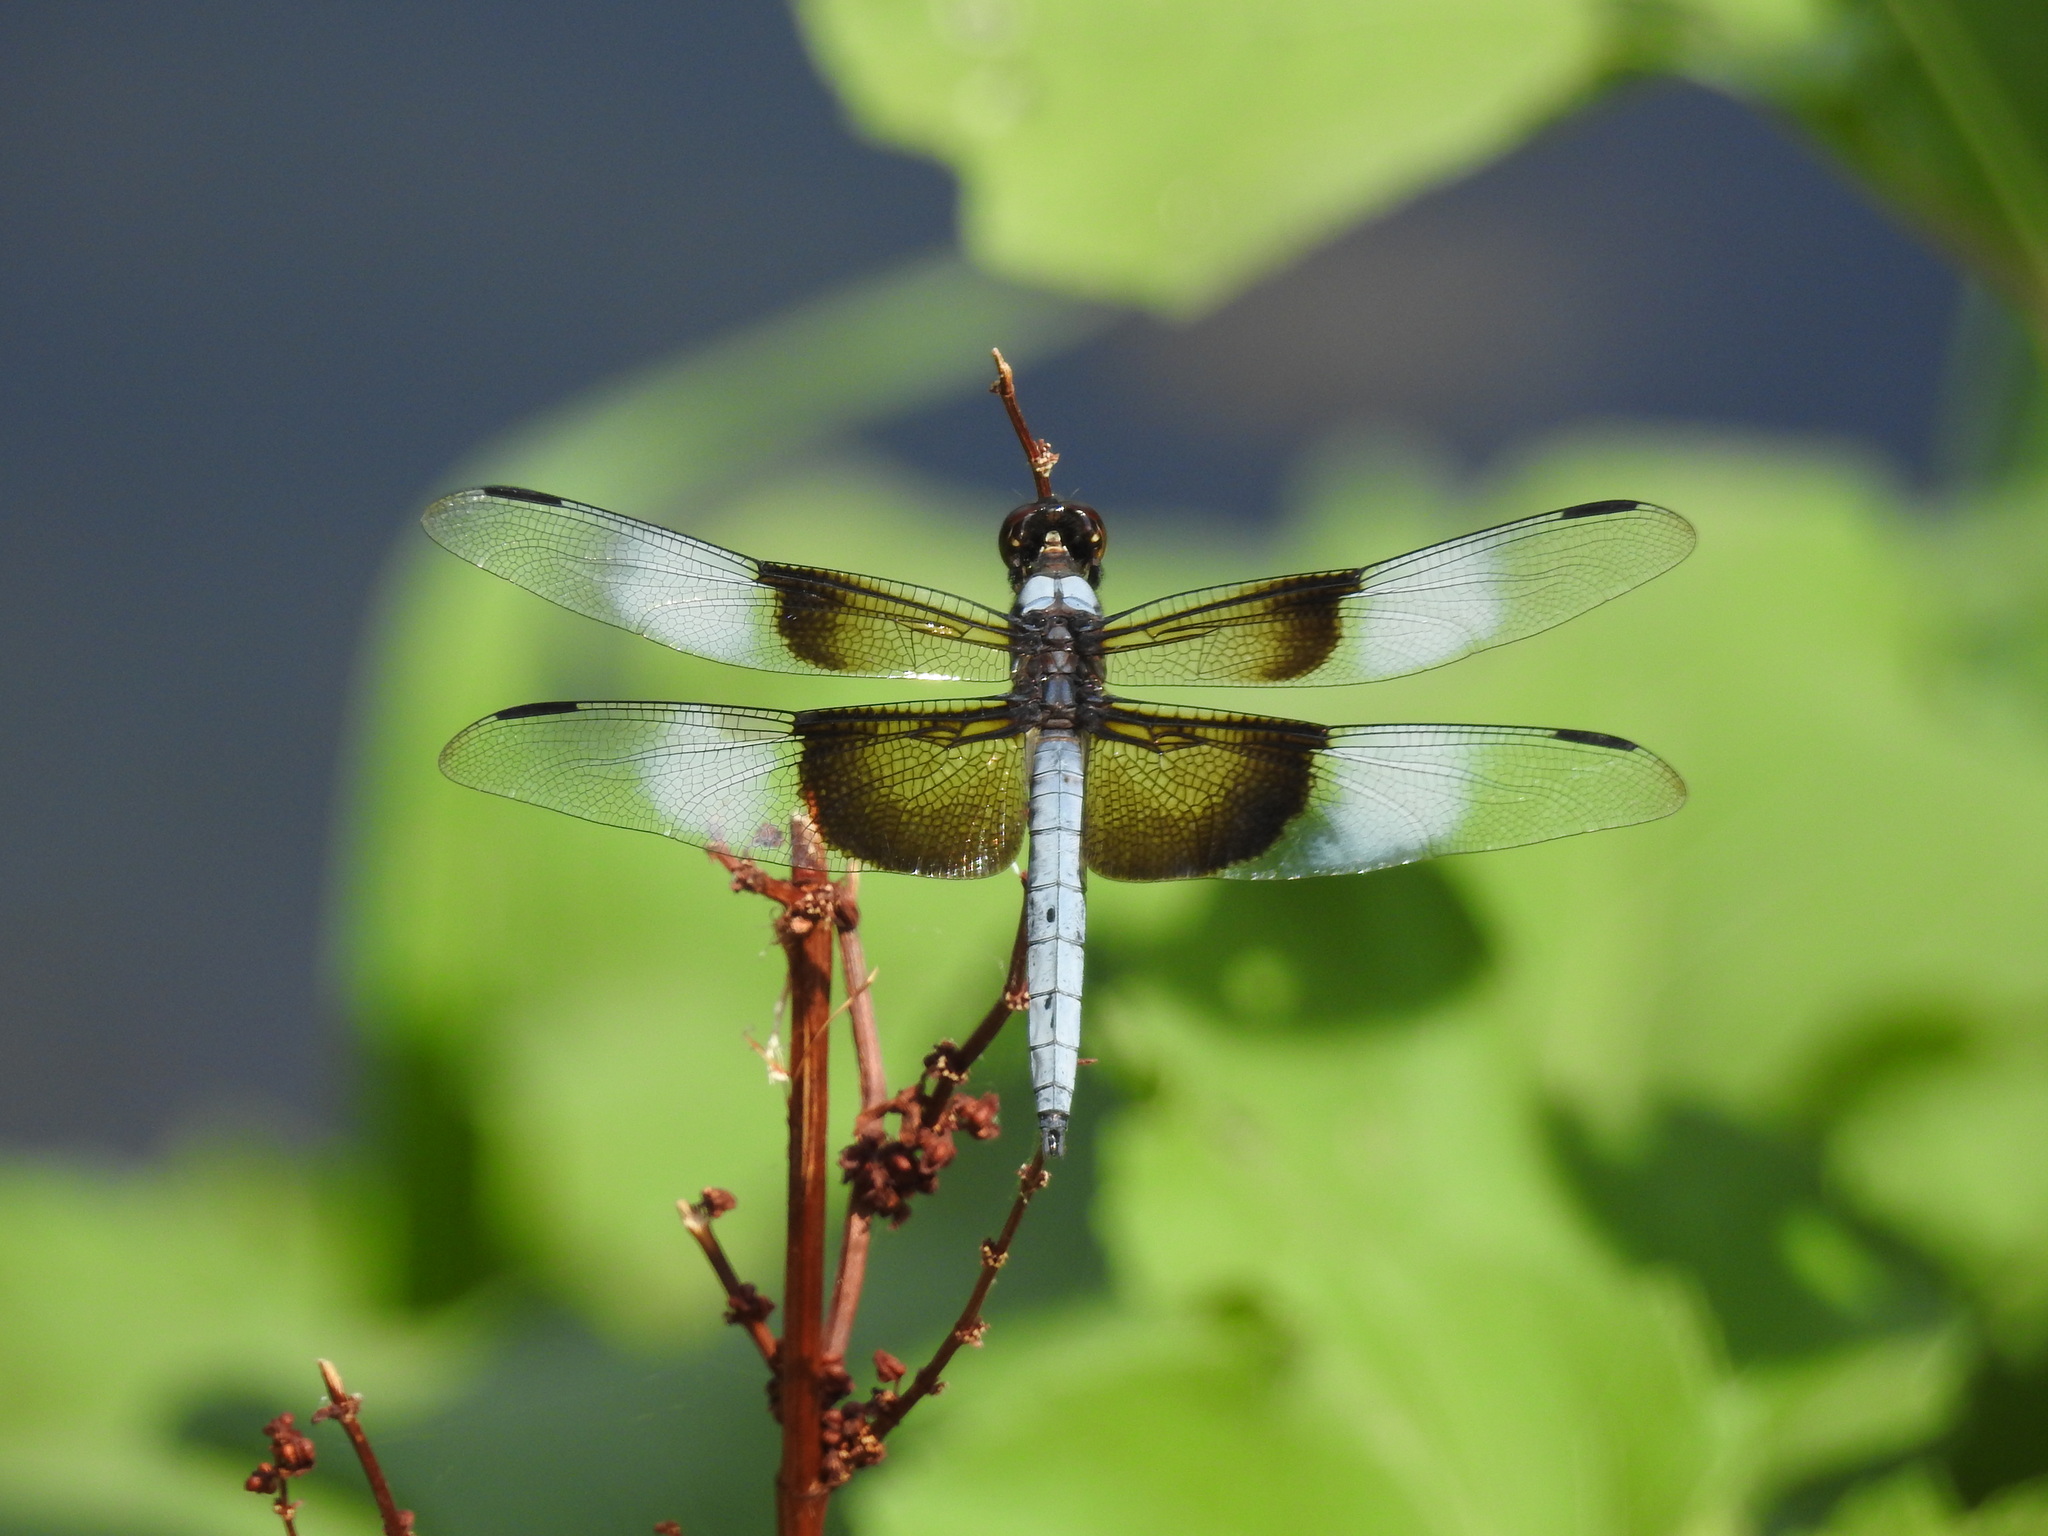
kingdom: Animalia
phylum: Arthropoda
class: Insecta
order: Odonata
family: Libellulidae
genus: Libellula
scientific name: Libellula luctuosa
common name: Widow skimmer
